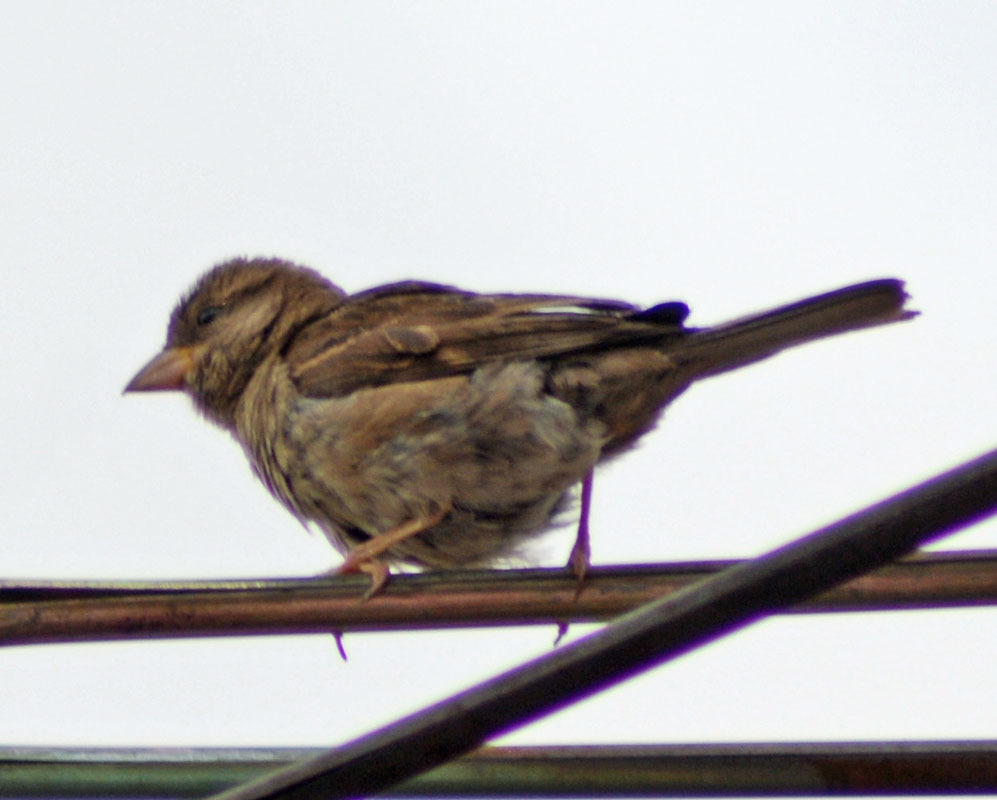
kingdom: Animalia
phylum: Chordata
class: Aves
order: Passeriformes
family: Passeridae
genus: Passer
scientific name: Passer domesticus
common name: House sparrow
